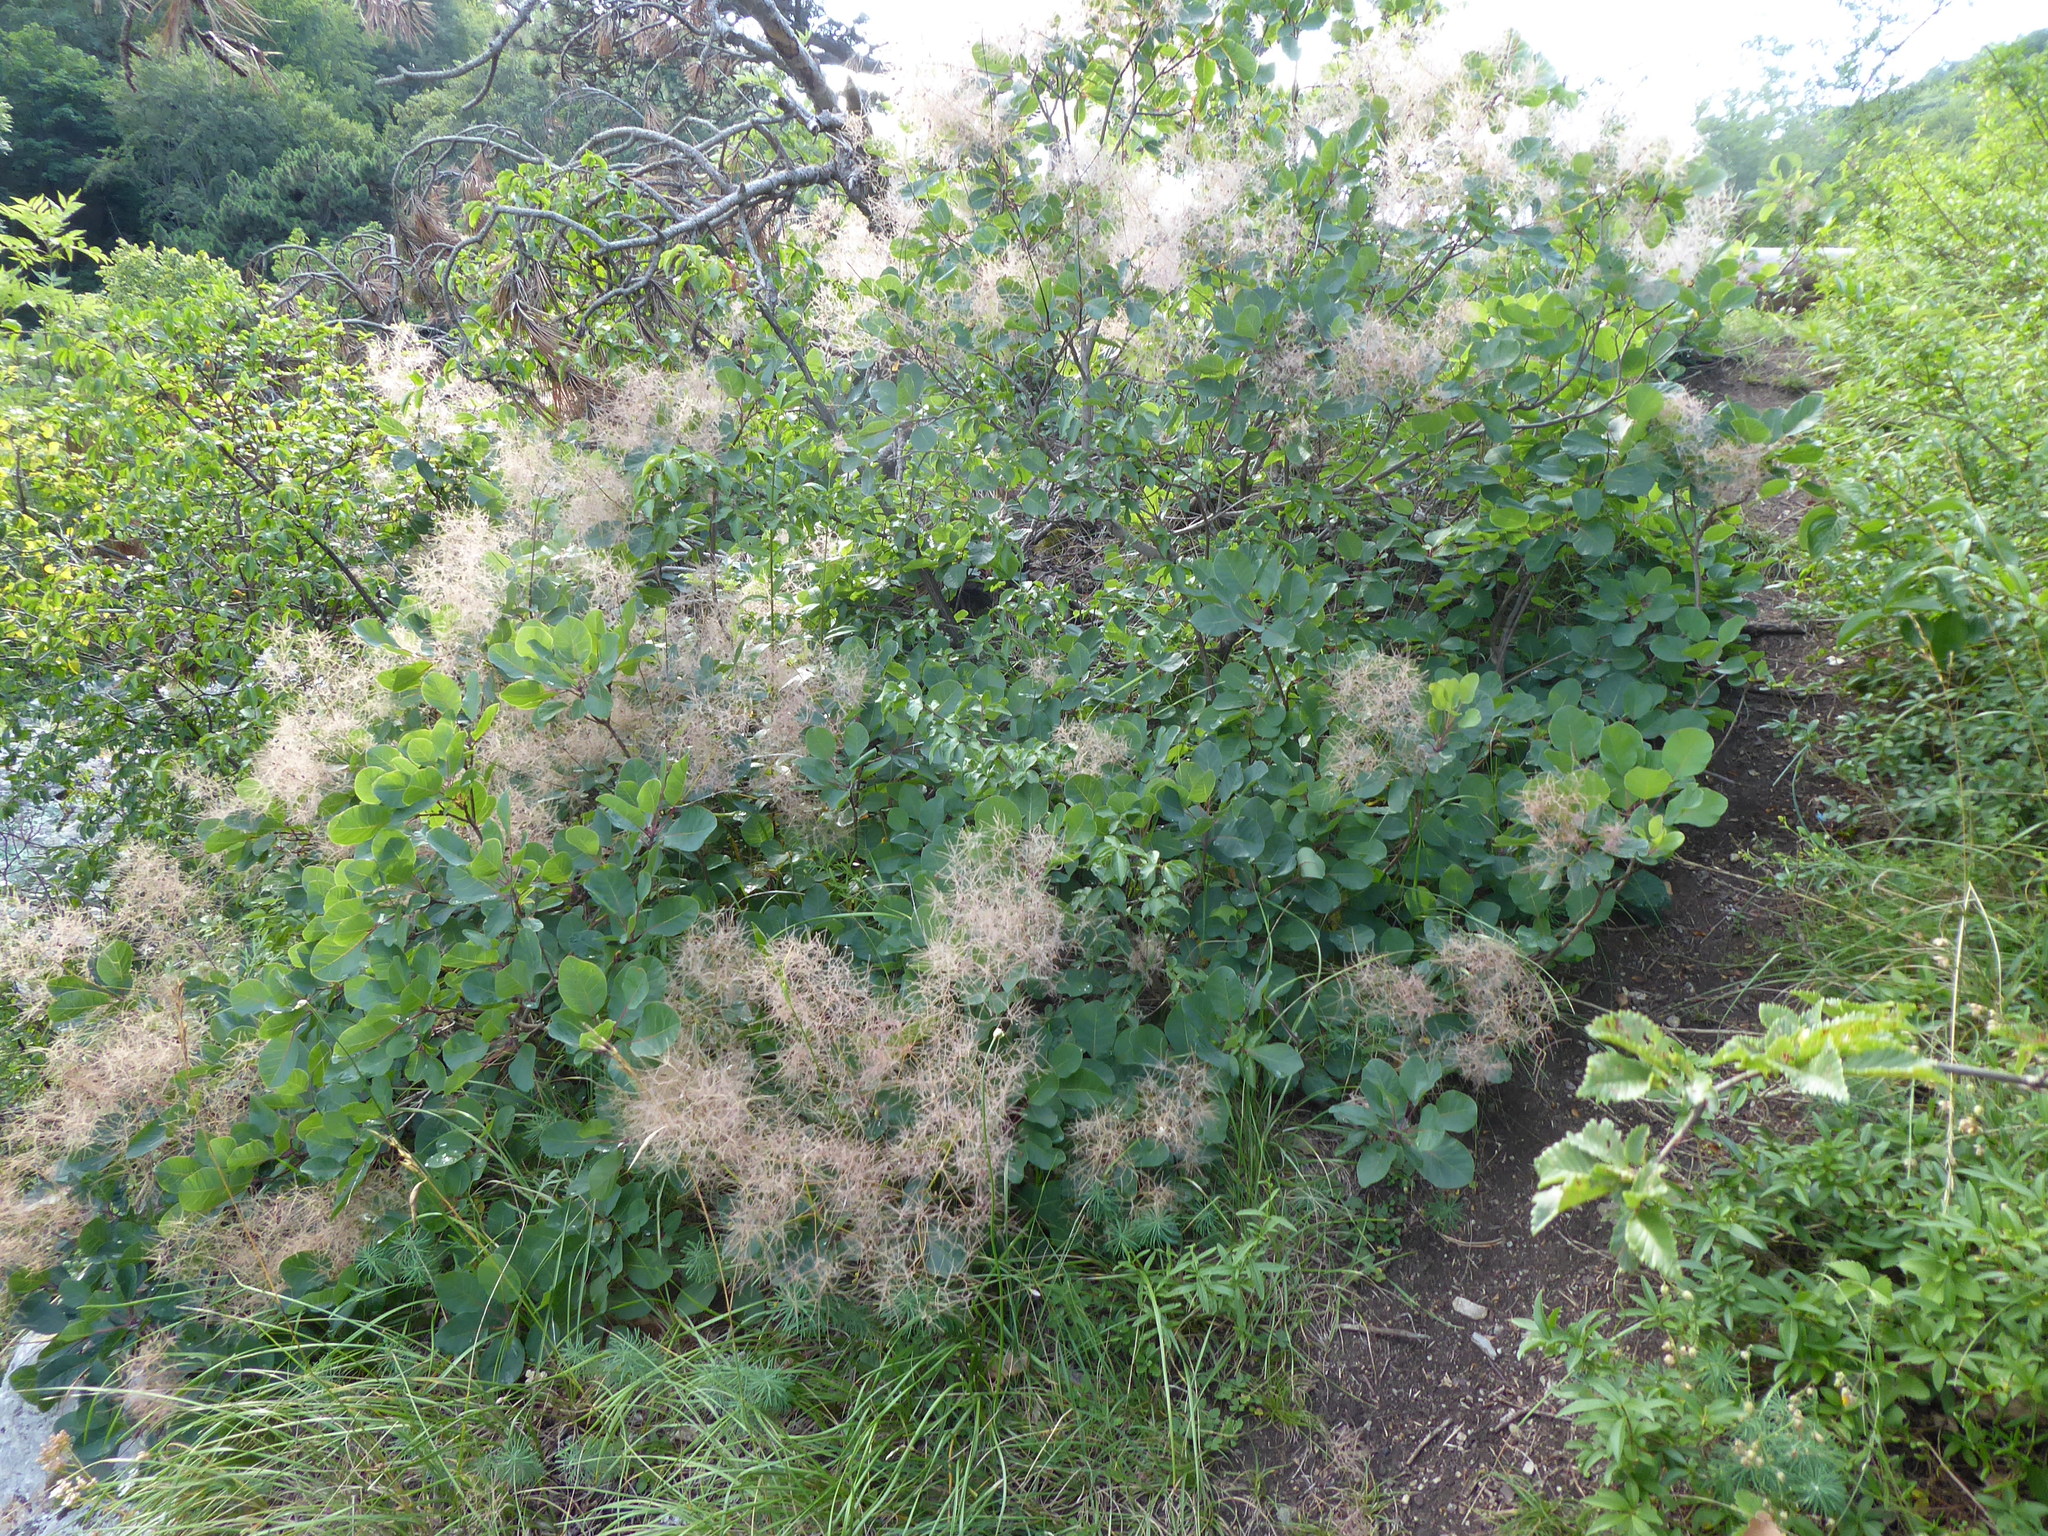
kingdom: Plantae
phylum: Tracheophyta
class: Magnoliopsida
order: Sapindales
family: Anacardiaceae
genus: Cotinus
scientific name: Cotinus coggygria
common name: Smoke-tree
